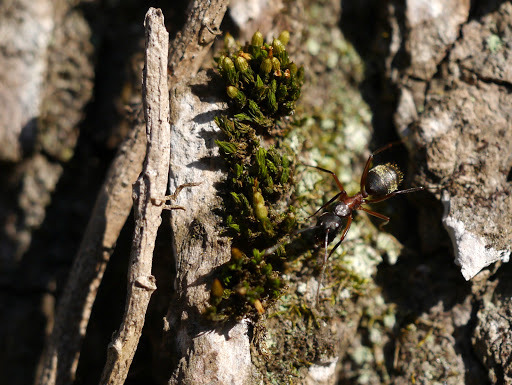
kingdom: Animalia
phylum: Arthropoda
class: Insecta
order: Hymenoptera
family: Formicidae
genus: Camponotus
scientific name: Camponotus chromaiodes
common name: Red carpenter ant
